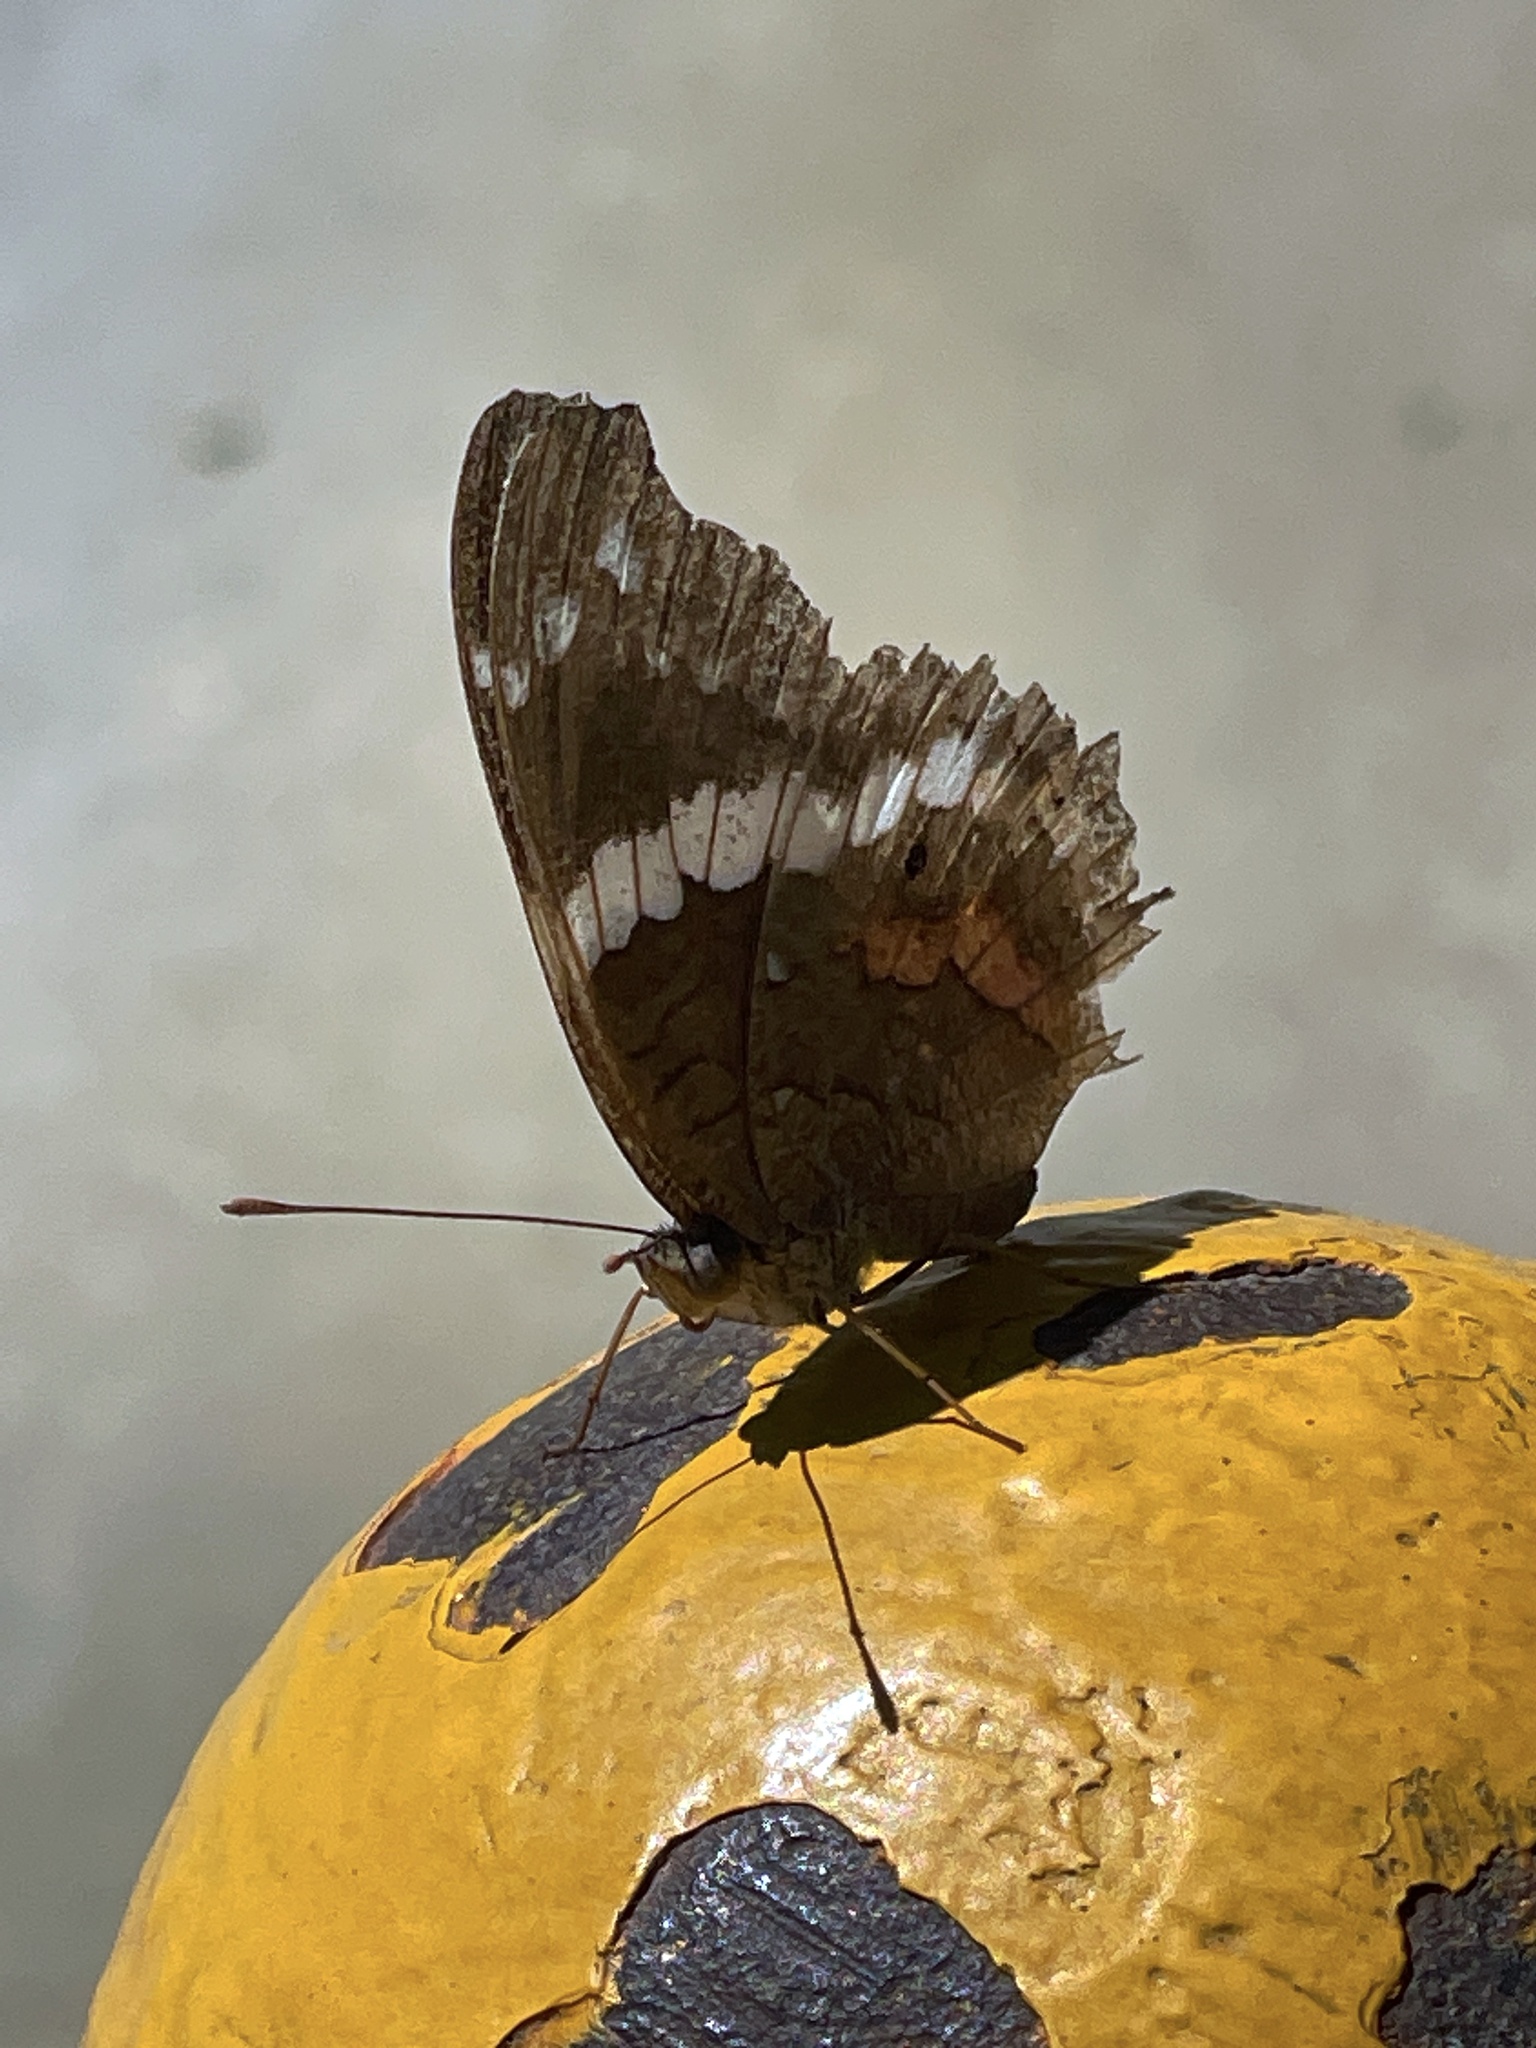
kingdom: Animalia
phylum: Arthropoda
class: Insecta
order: Lepidoptera
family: Nymphalidae
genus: Anartia
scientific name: Anartia fatima
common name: Banded peacock
